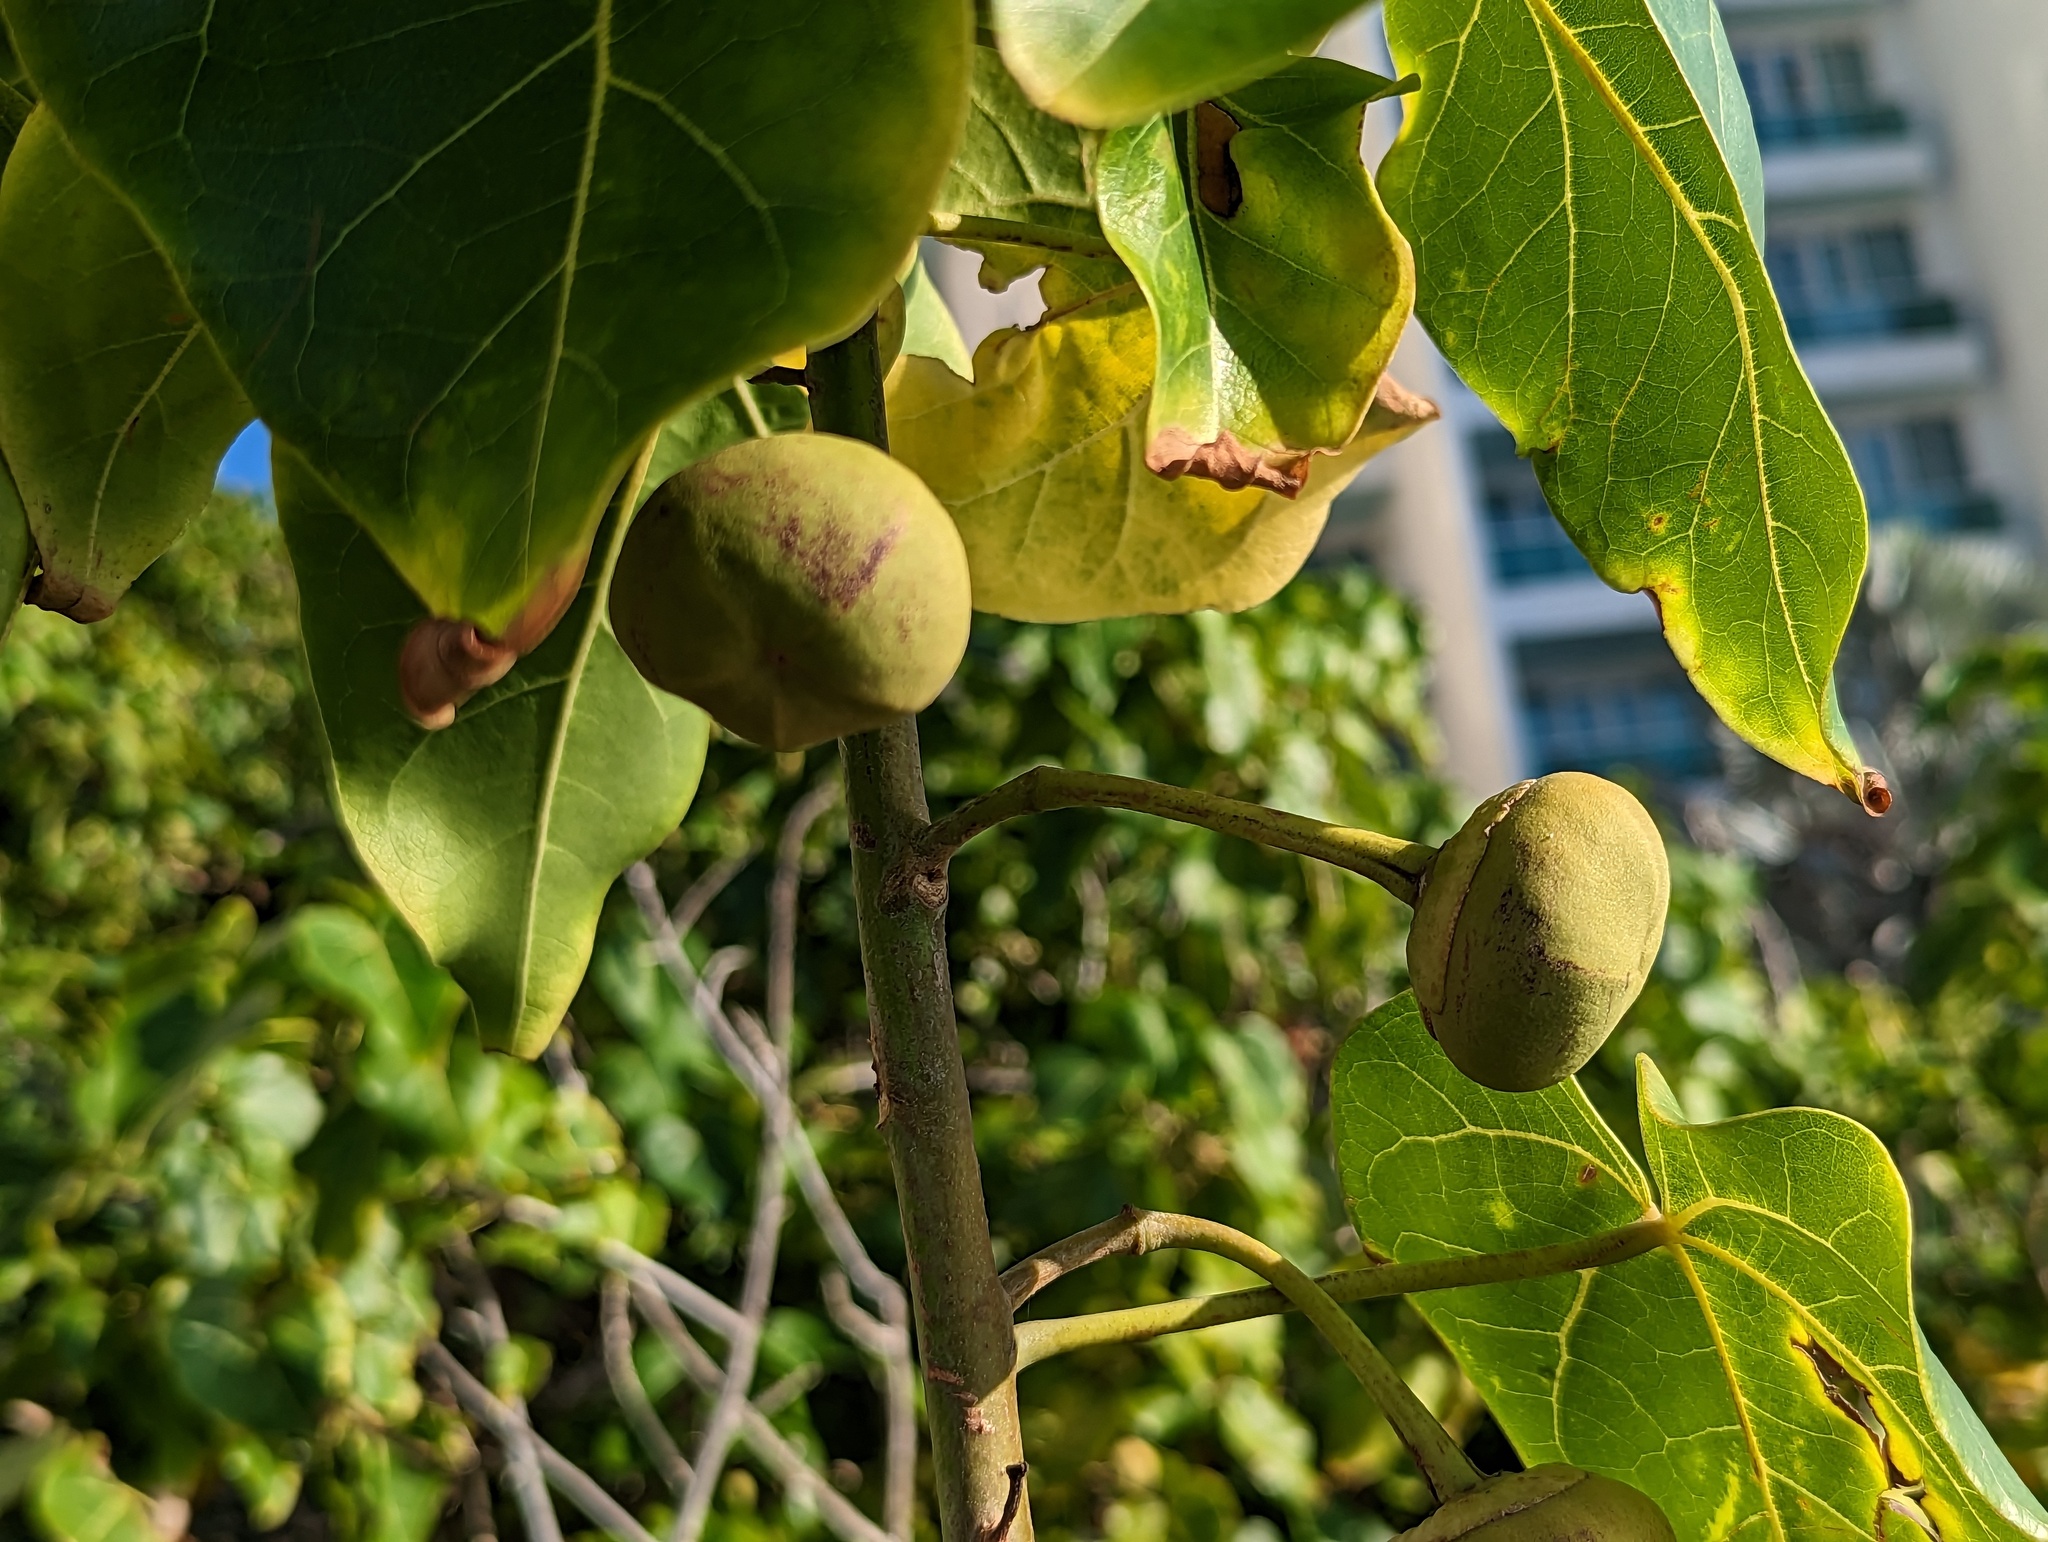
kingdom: Plantae
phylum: Tracheophyta
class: Magnoliopsida
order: Malvales
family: Malvaceae
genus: Thespesia
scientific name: Thespesia populnea
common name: Seaside mahoe
